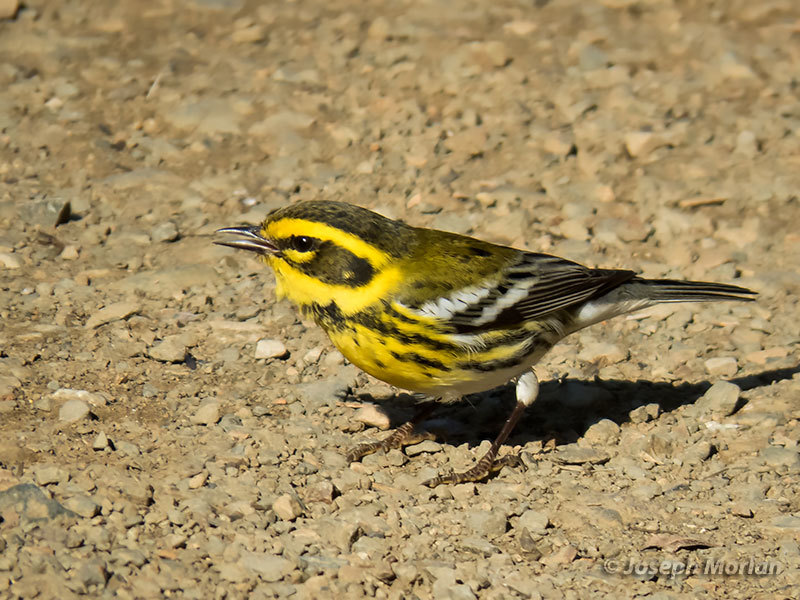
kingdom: Animalia
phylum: Chordata
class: Aves
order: Passeriformes
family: Parulidae
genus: Setophaga
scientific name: Setophaga townsendi
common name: Townsend's warbler
